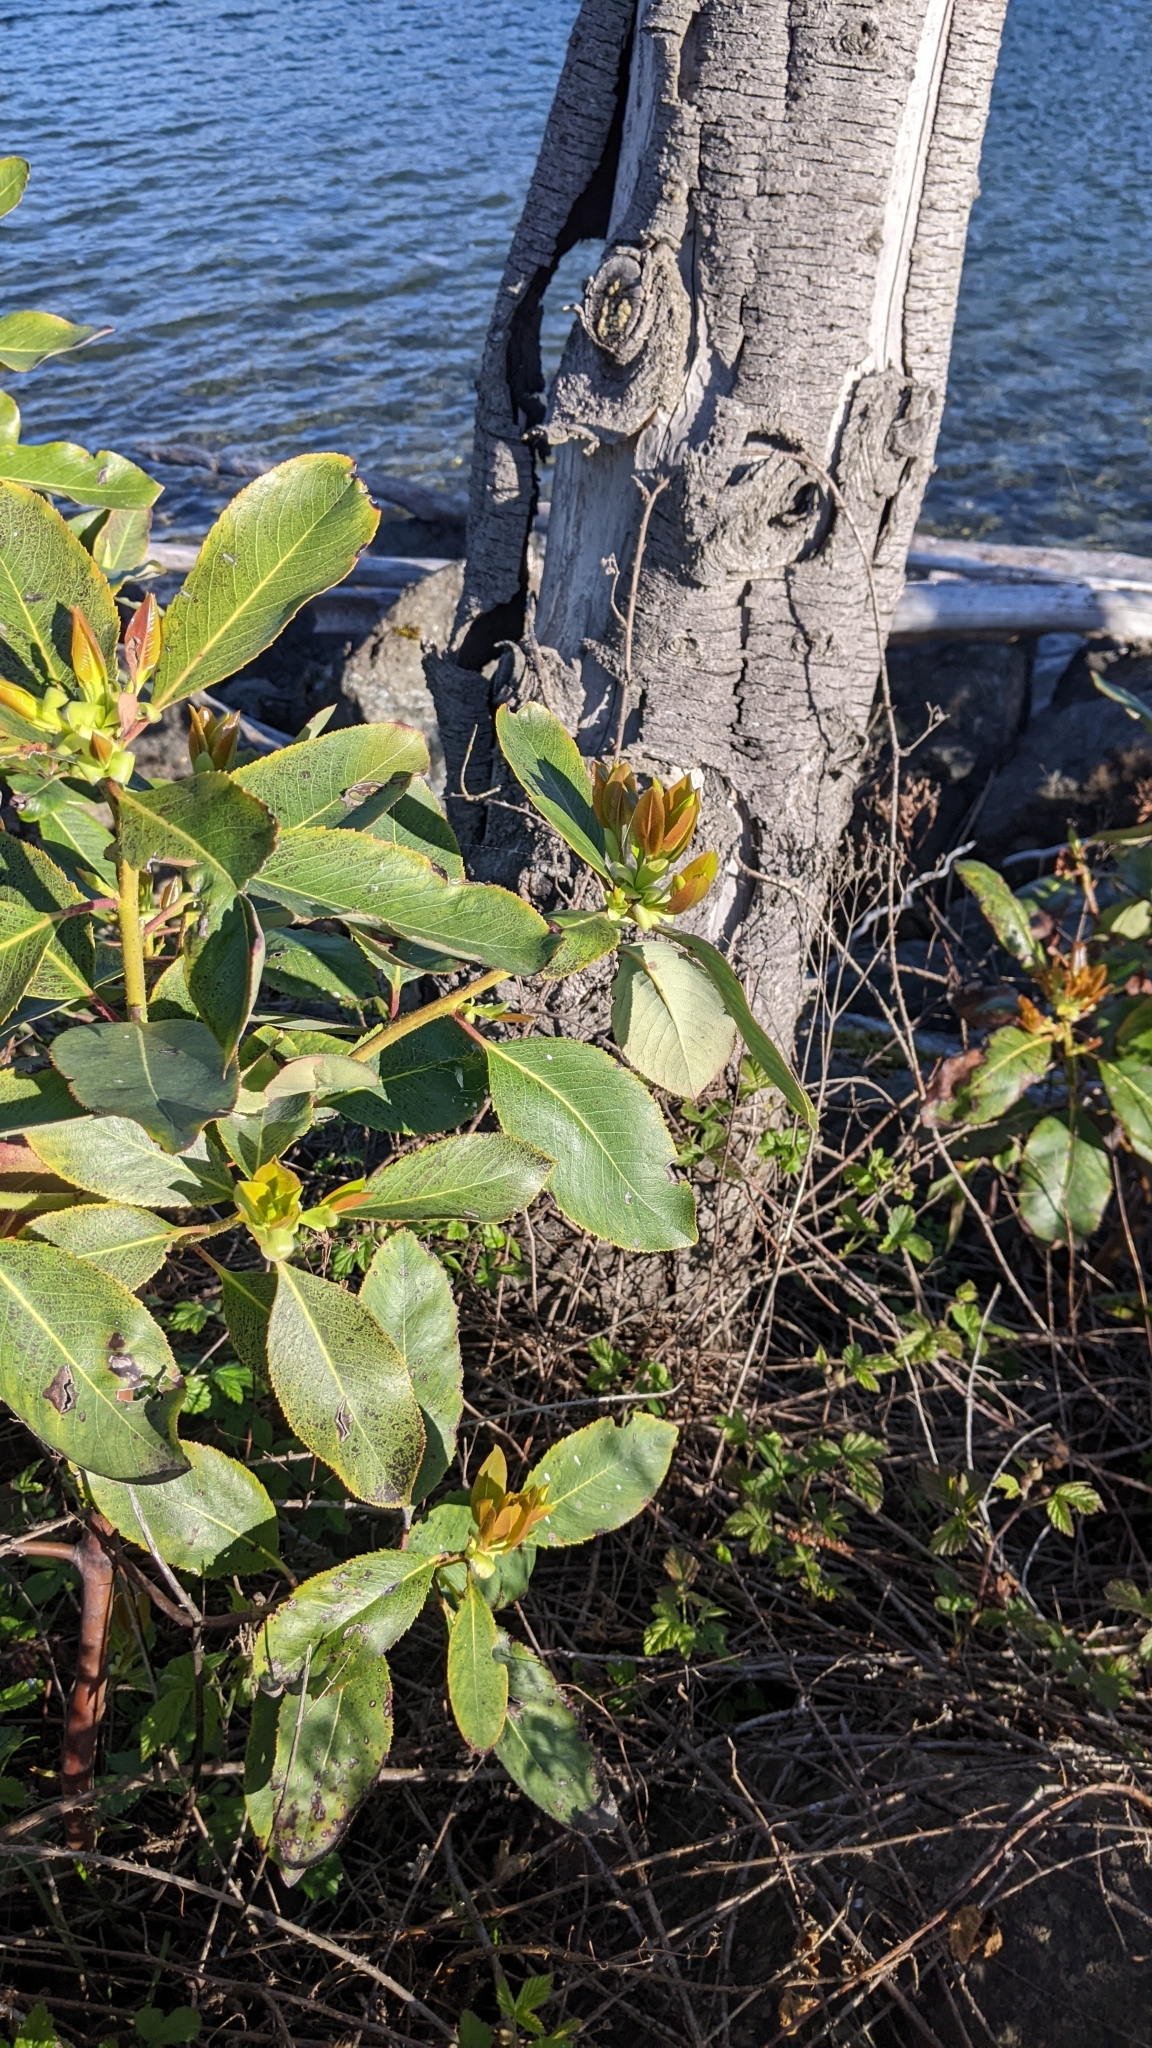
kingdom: Plantae
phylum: Tracheophyta
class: Magnoliopsida
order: Ericales
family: Ericaceae
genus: Arbutus
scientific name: Arbutus menziesii
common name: Pacific madrone
